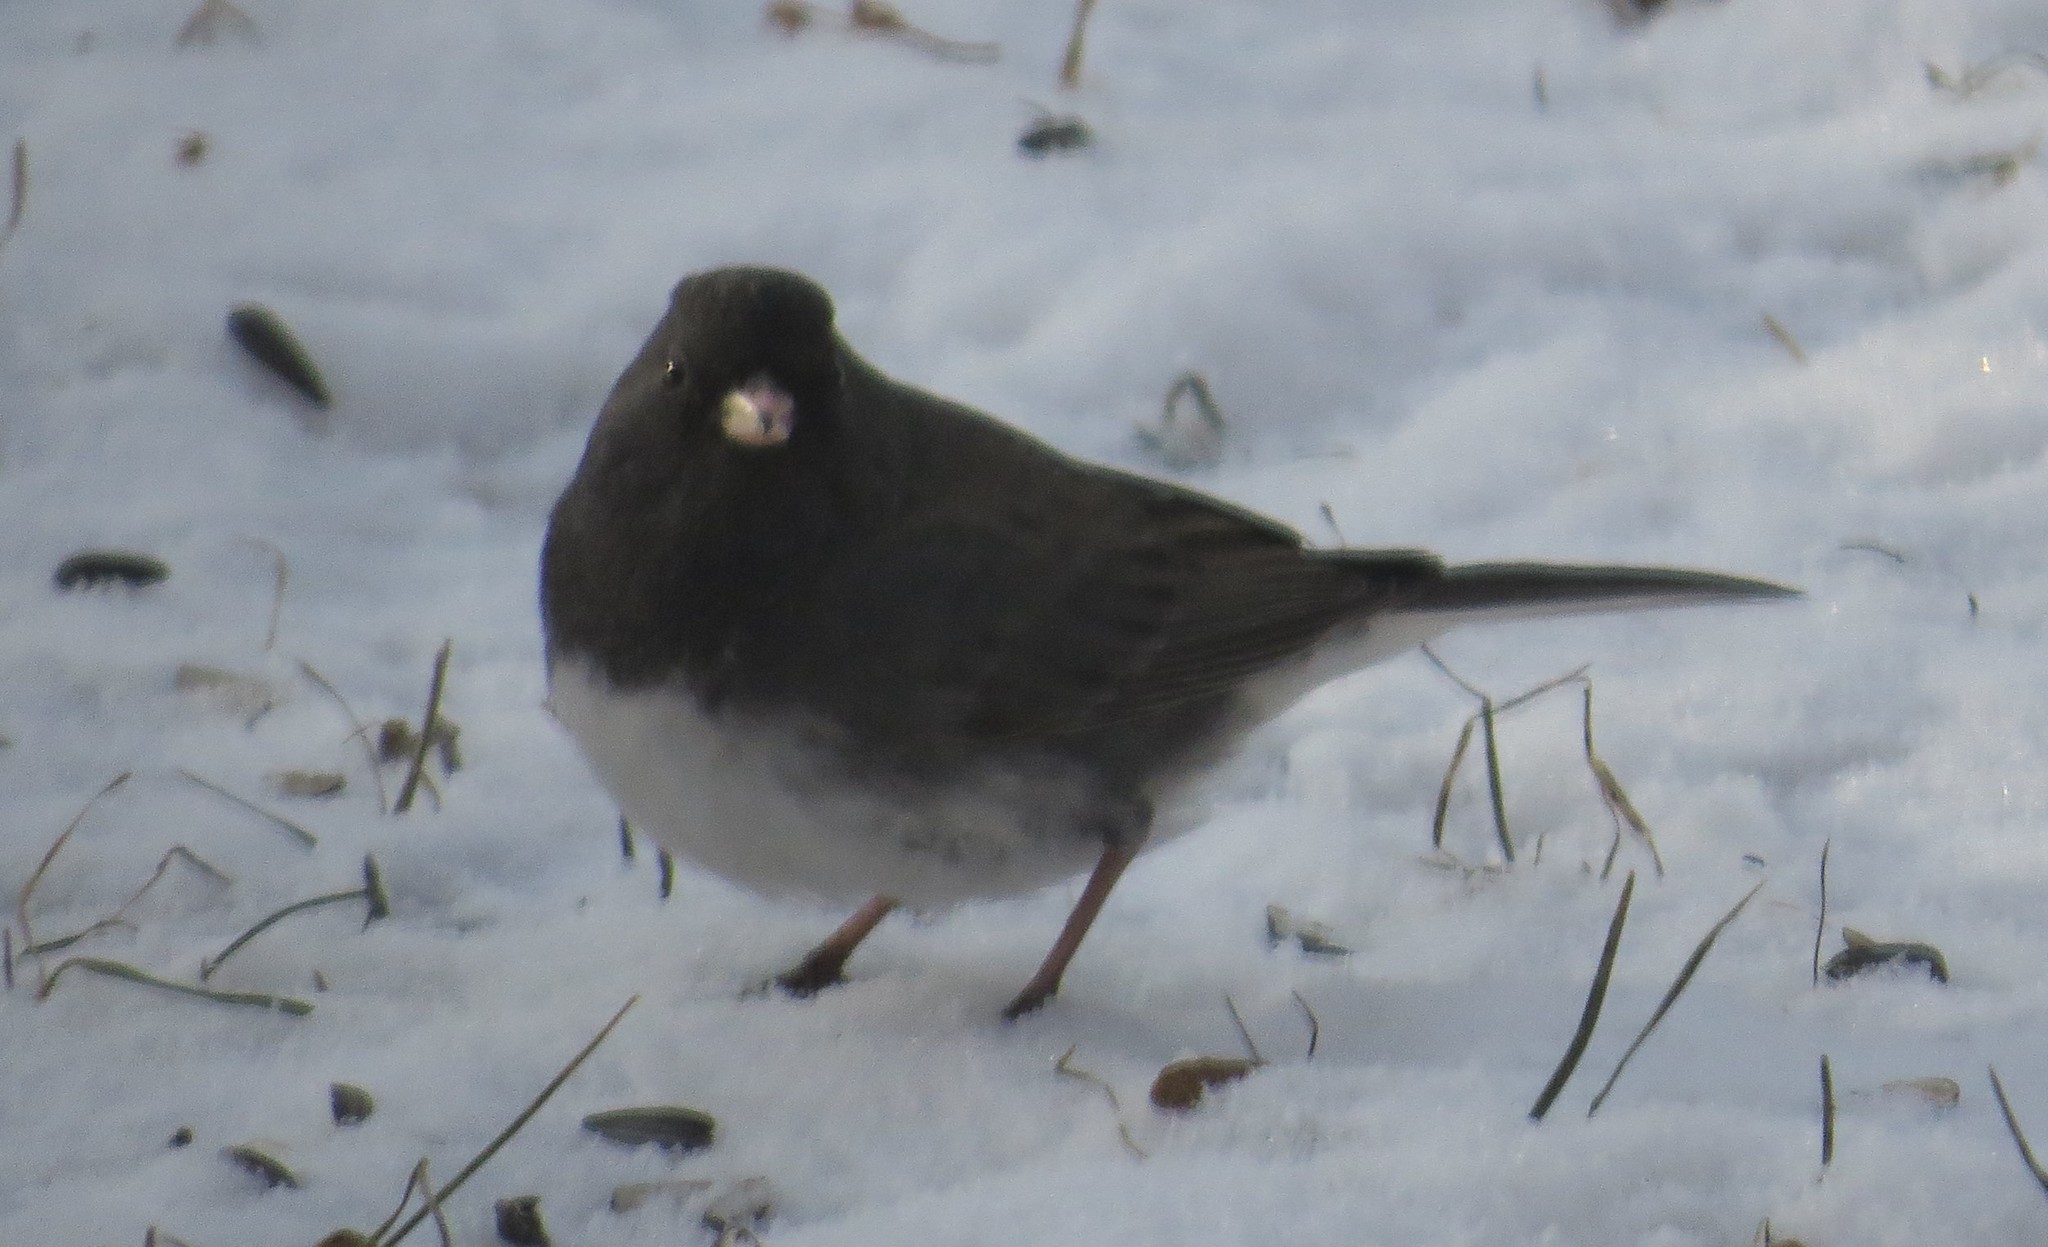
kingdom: Animalia
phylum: Chordata
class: Aves
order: Passeriformes
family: Passerellidae
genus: Junco
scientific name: Junco hyemalis
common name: Dark-eyed junco
